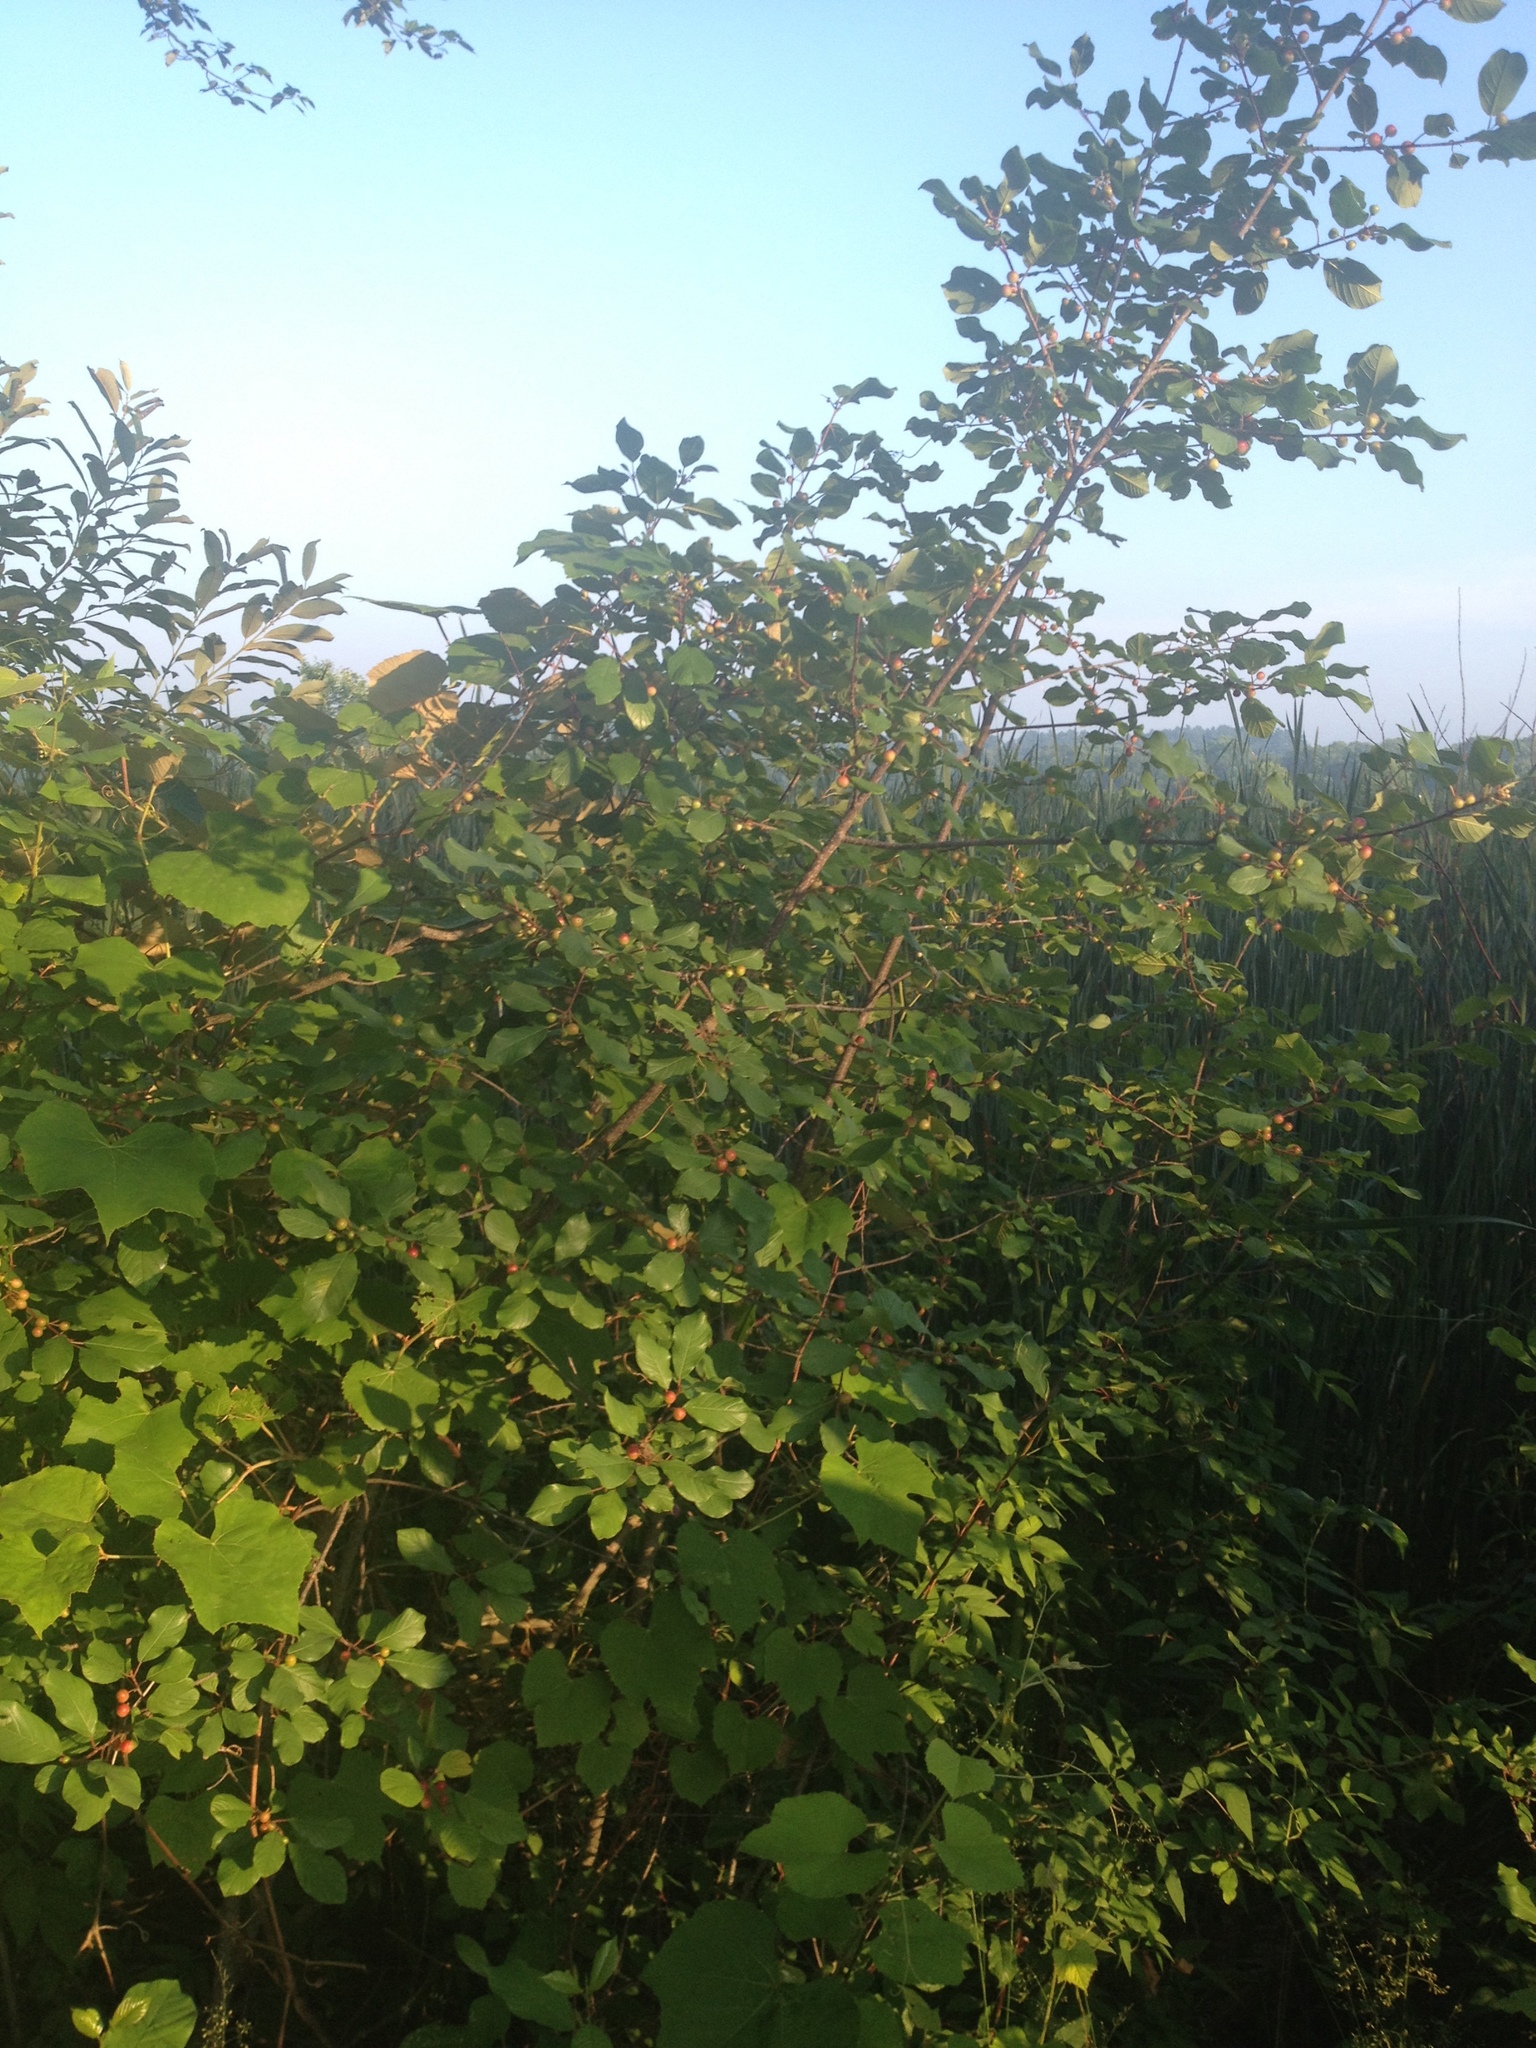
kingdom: Plantae
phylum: Tracheophyta
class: Magnoliopsida
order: Rosales
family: Rhamnaceae
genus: Frangula
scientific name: Frangula alnus
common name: Alder buckthorn
